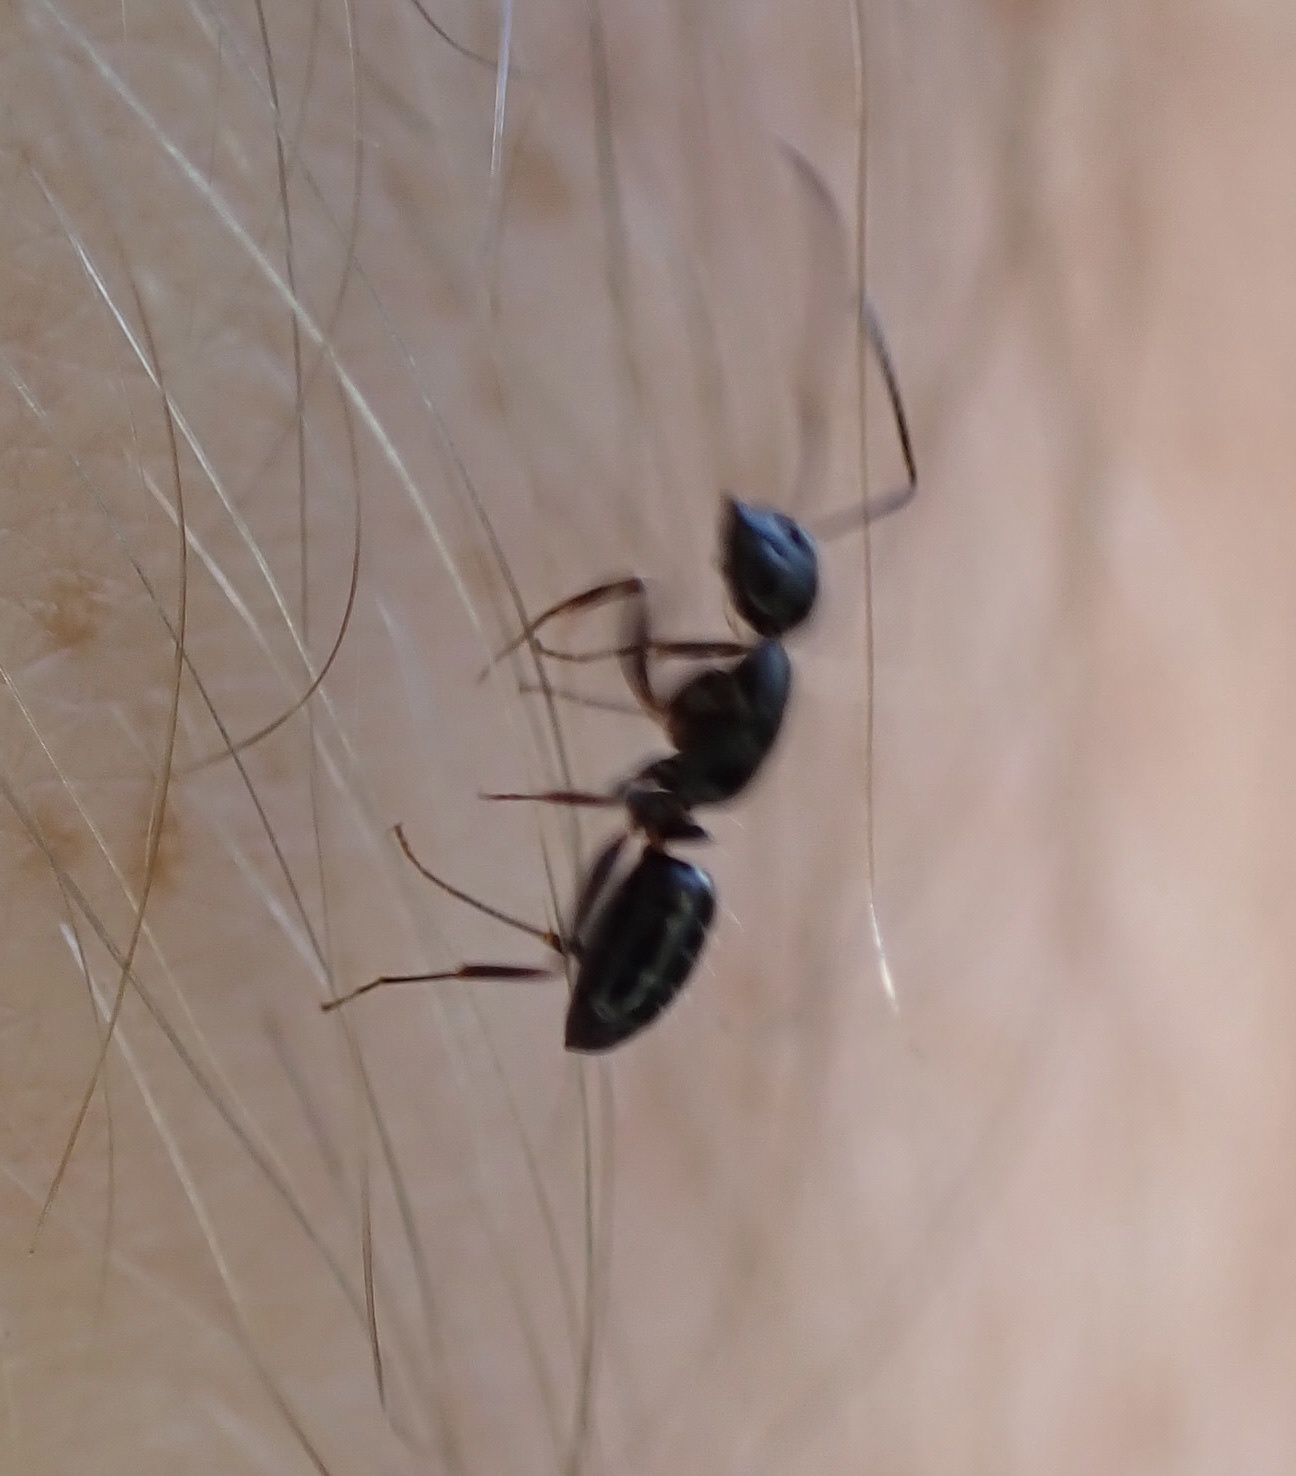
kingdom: Animalia
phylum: Arthropoda
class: Insecta
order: Hymenoptera
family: Formicidae
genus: Myrmentoma
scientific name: Myrmentoma
